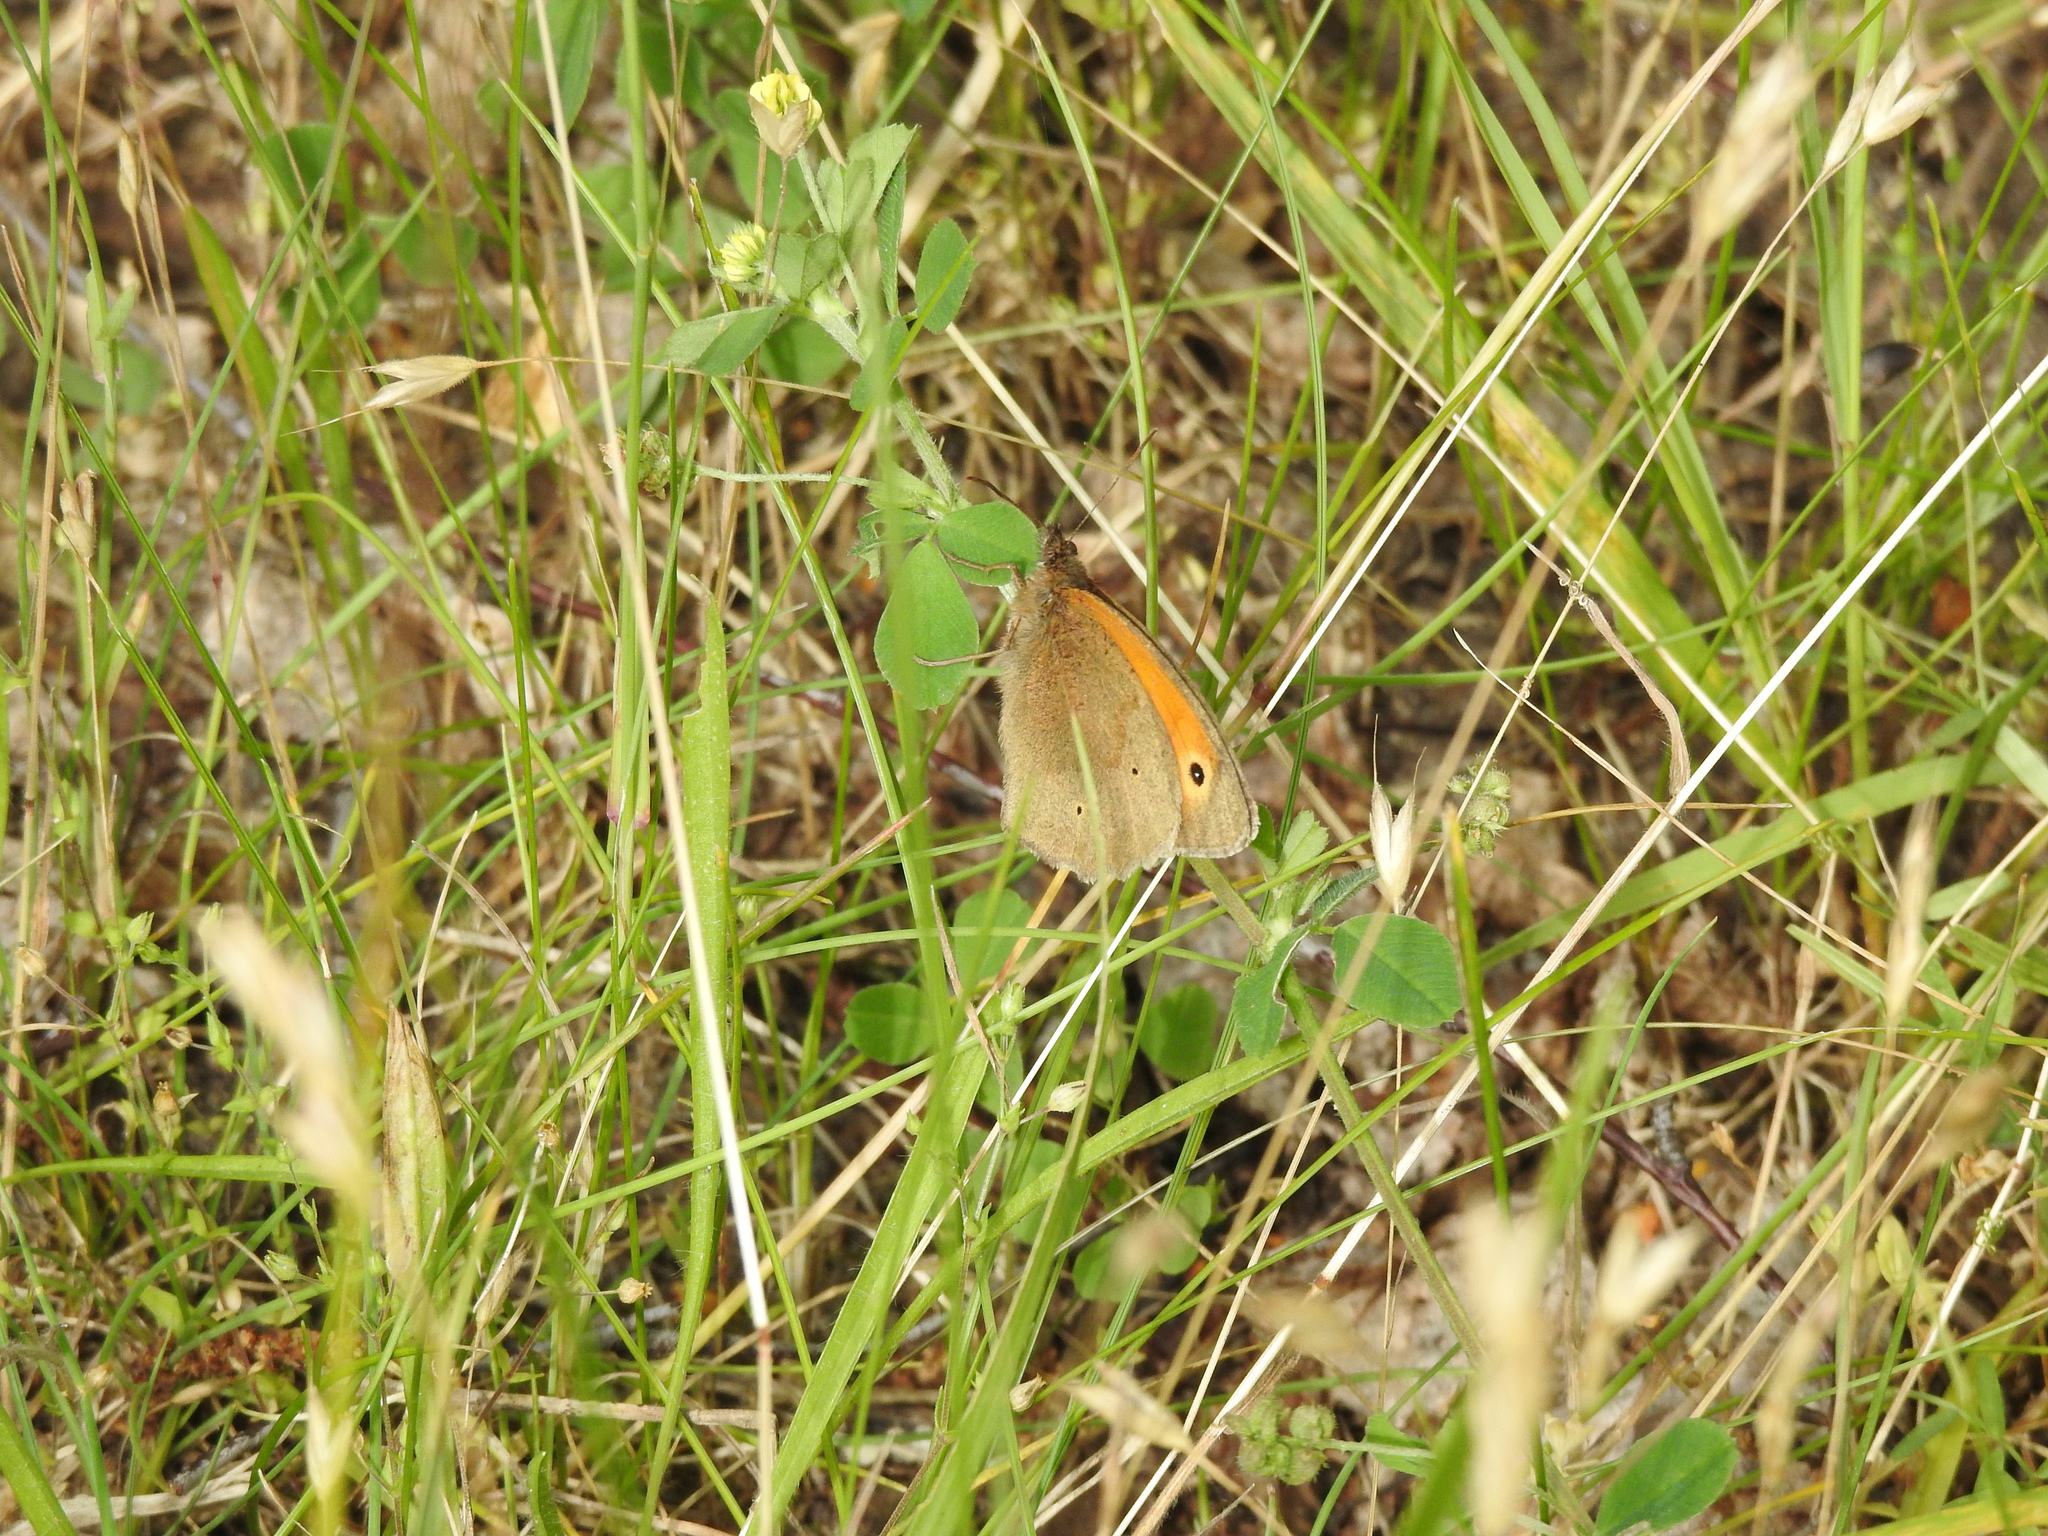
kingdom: Animalia
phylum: Arthropoda
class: Insecta
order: Lepidoptera
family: Nymphalidae
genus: Maniola
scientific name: Maniola jurtina
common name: Meadow brown
